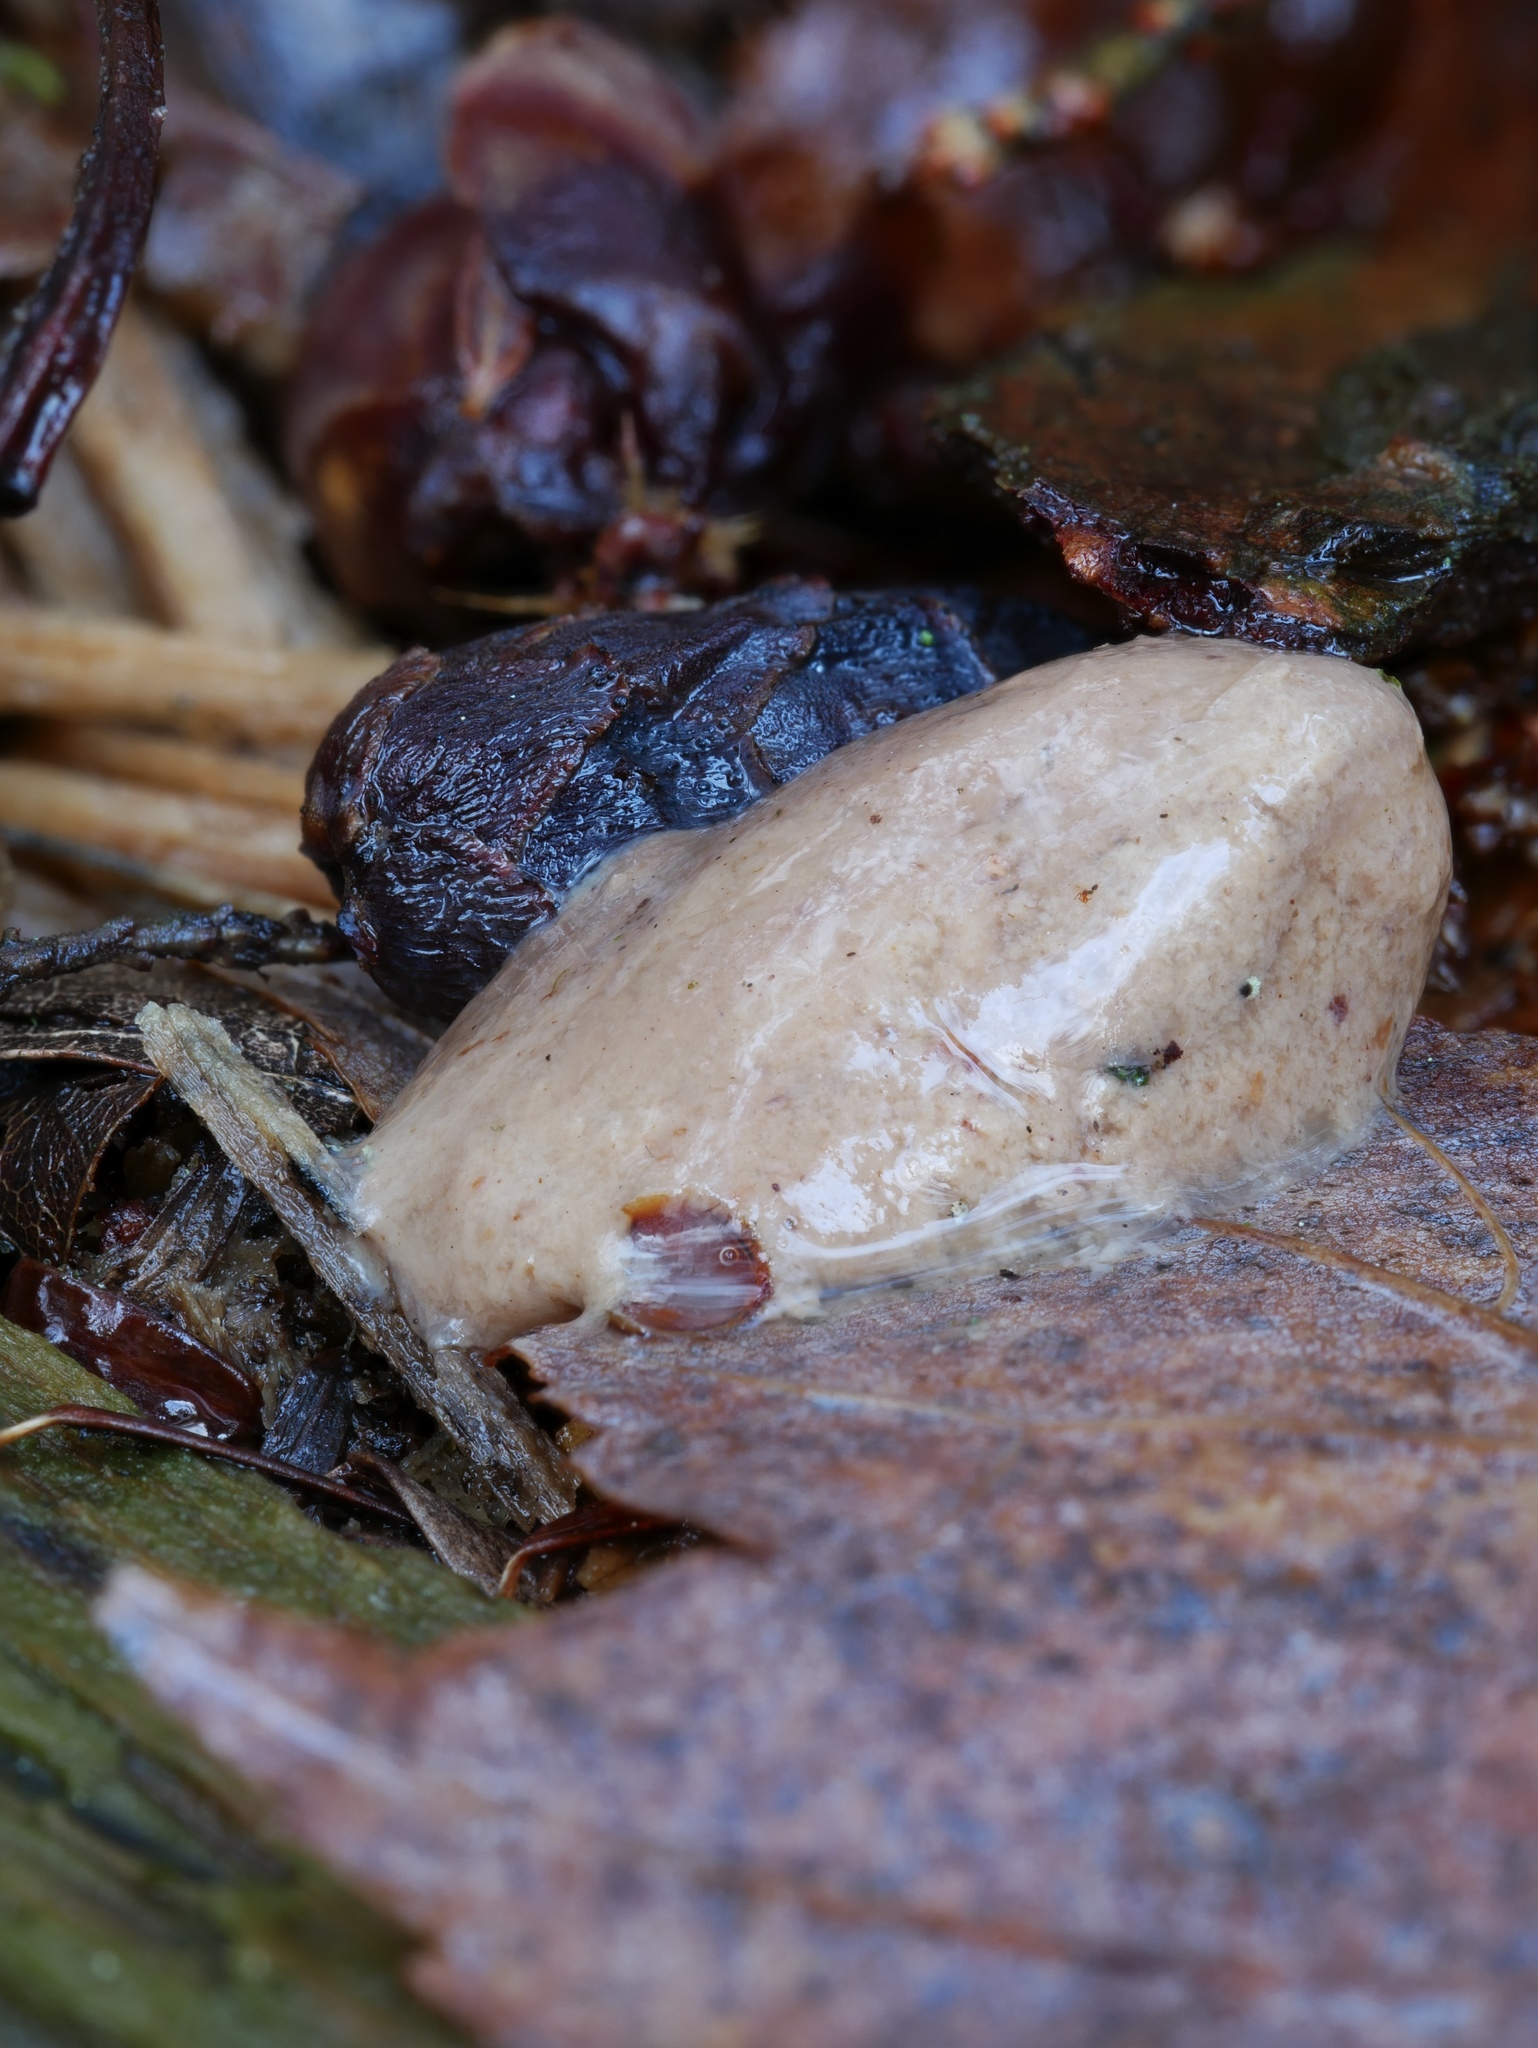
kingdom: Protozoa
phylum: Mycetozoa
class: Myxomycetes
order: Cribrariales
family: Tubiferaceae
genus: Reticularia
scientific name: Reticularia splendens
